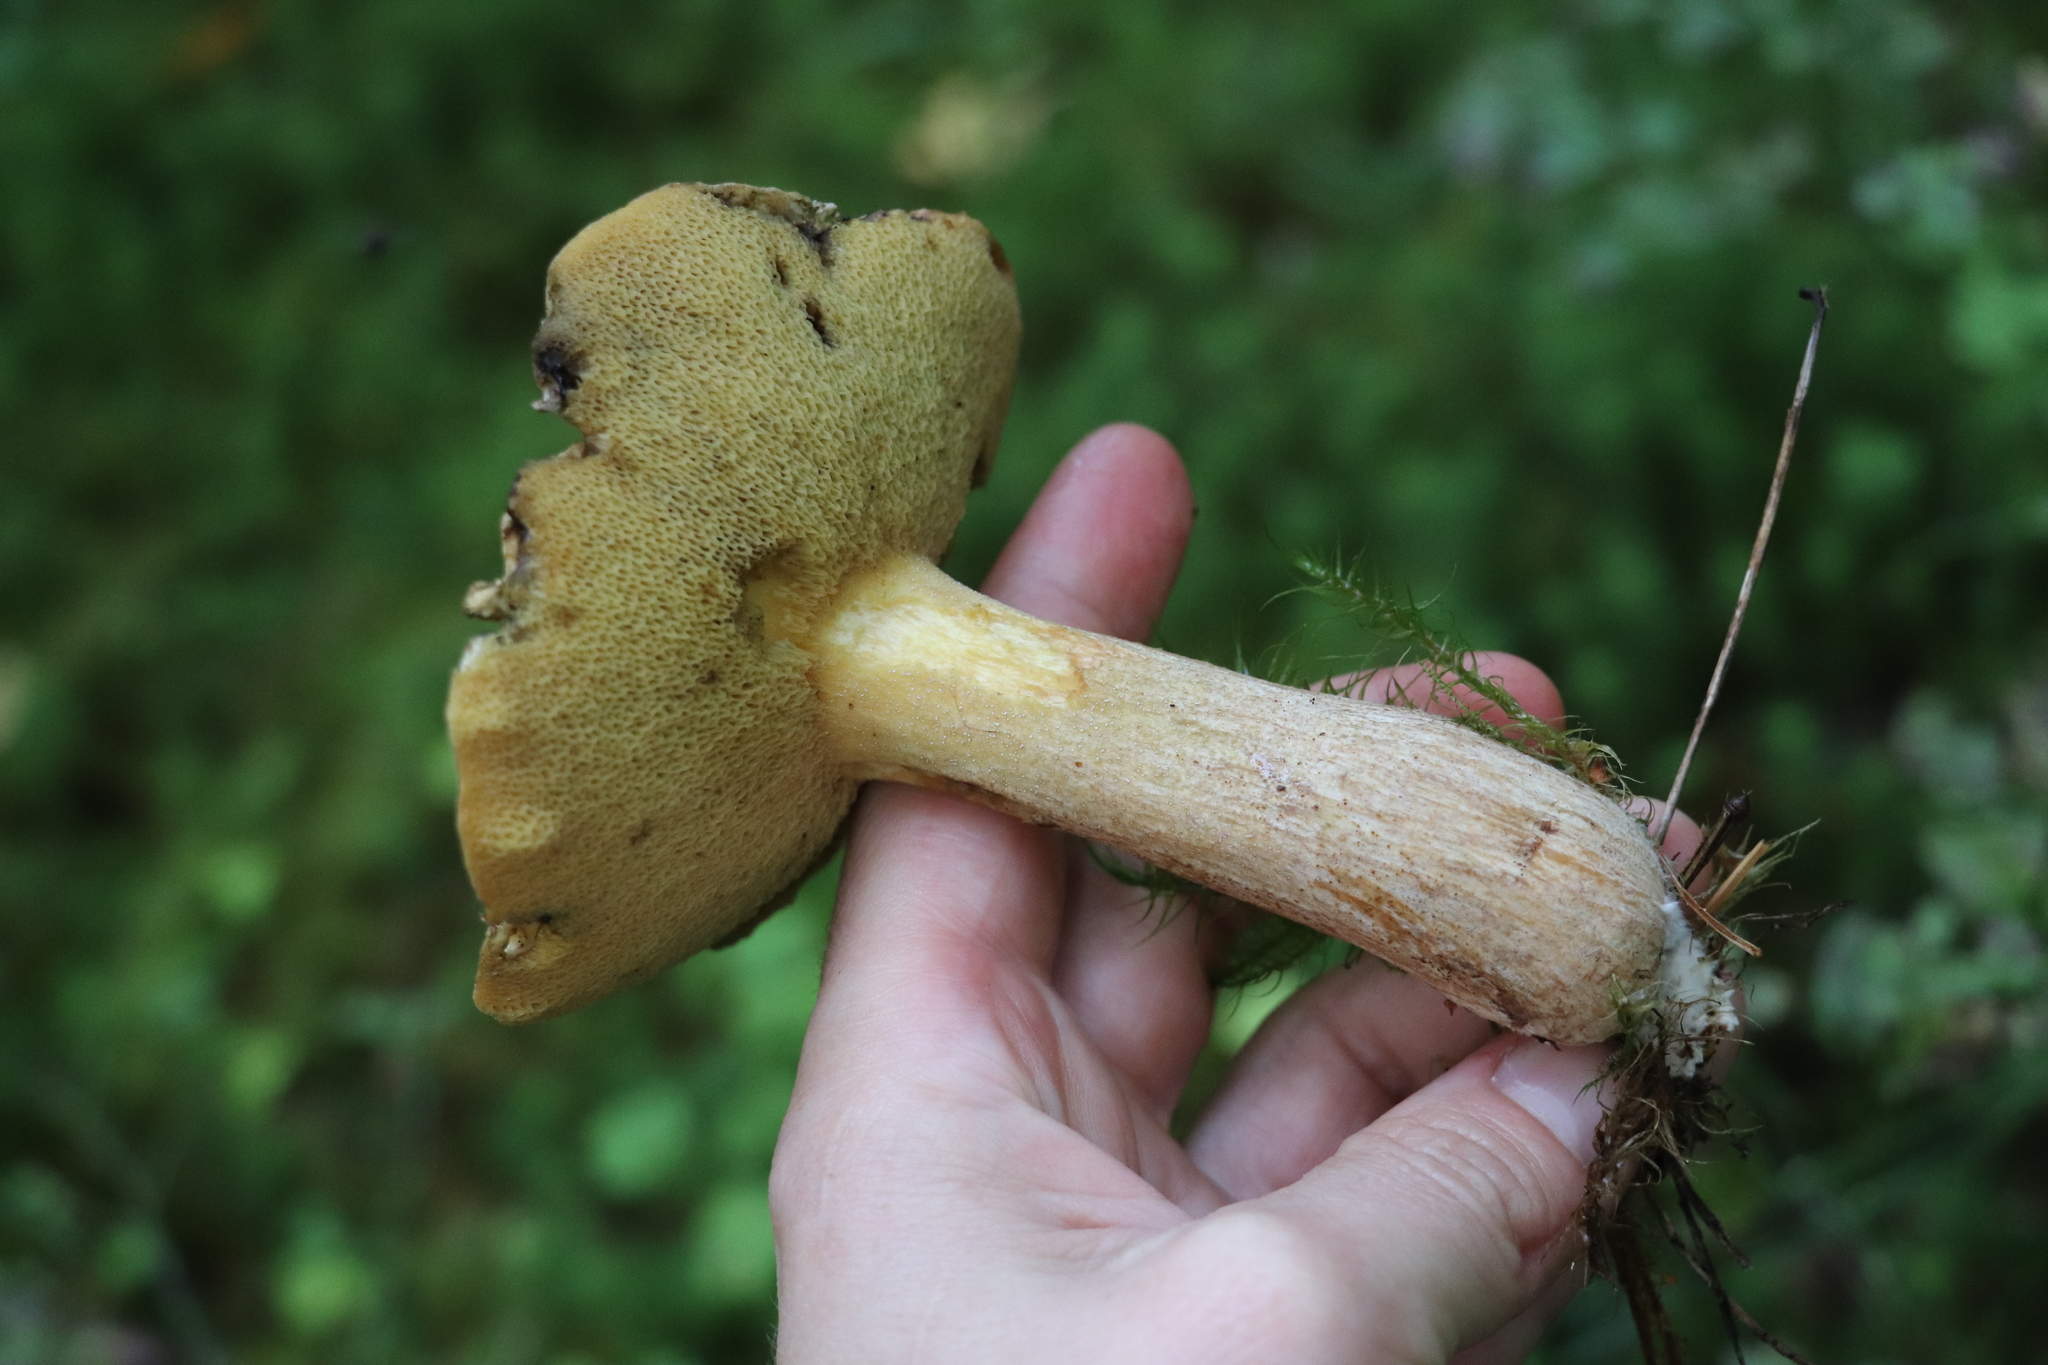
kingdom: Fungi
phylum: Basidiomycota
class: Agaricomycetes
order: Boletales
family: Suillaceae
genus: Suillus
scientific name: Suillus punctipes
